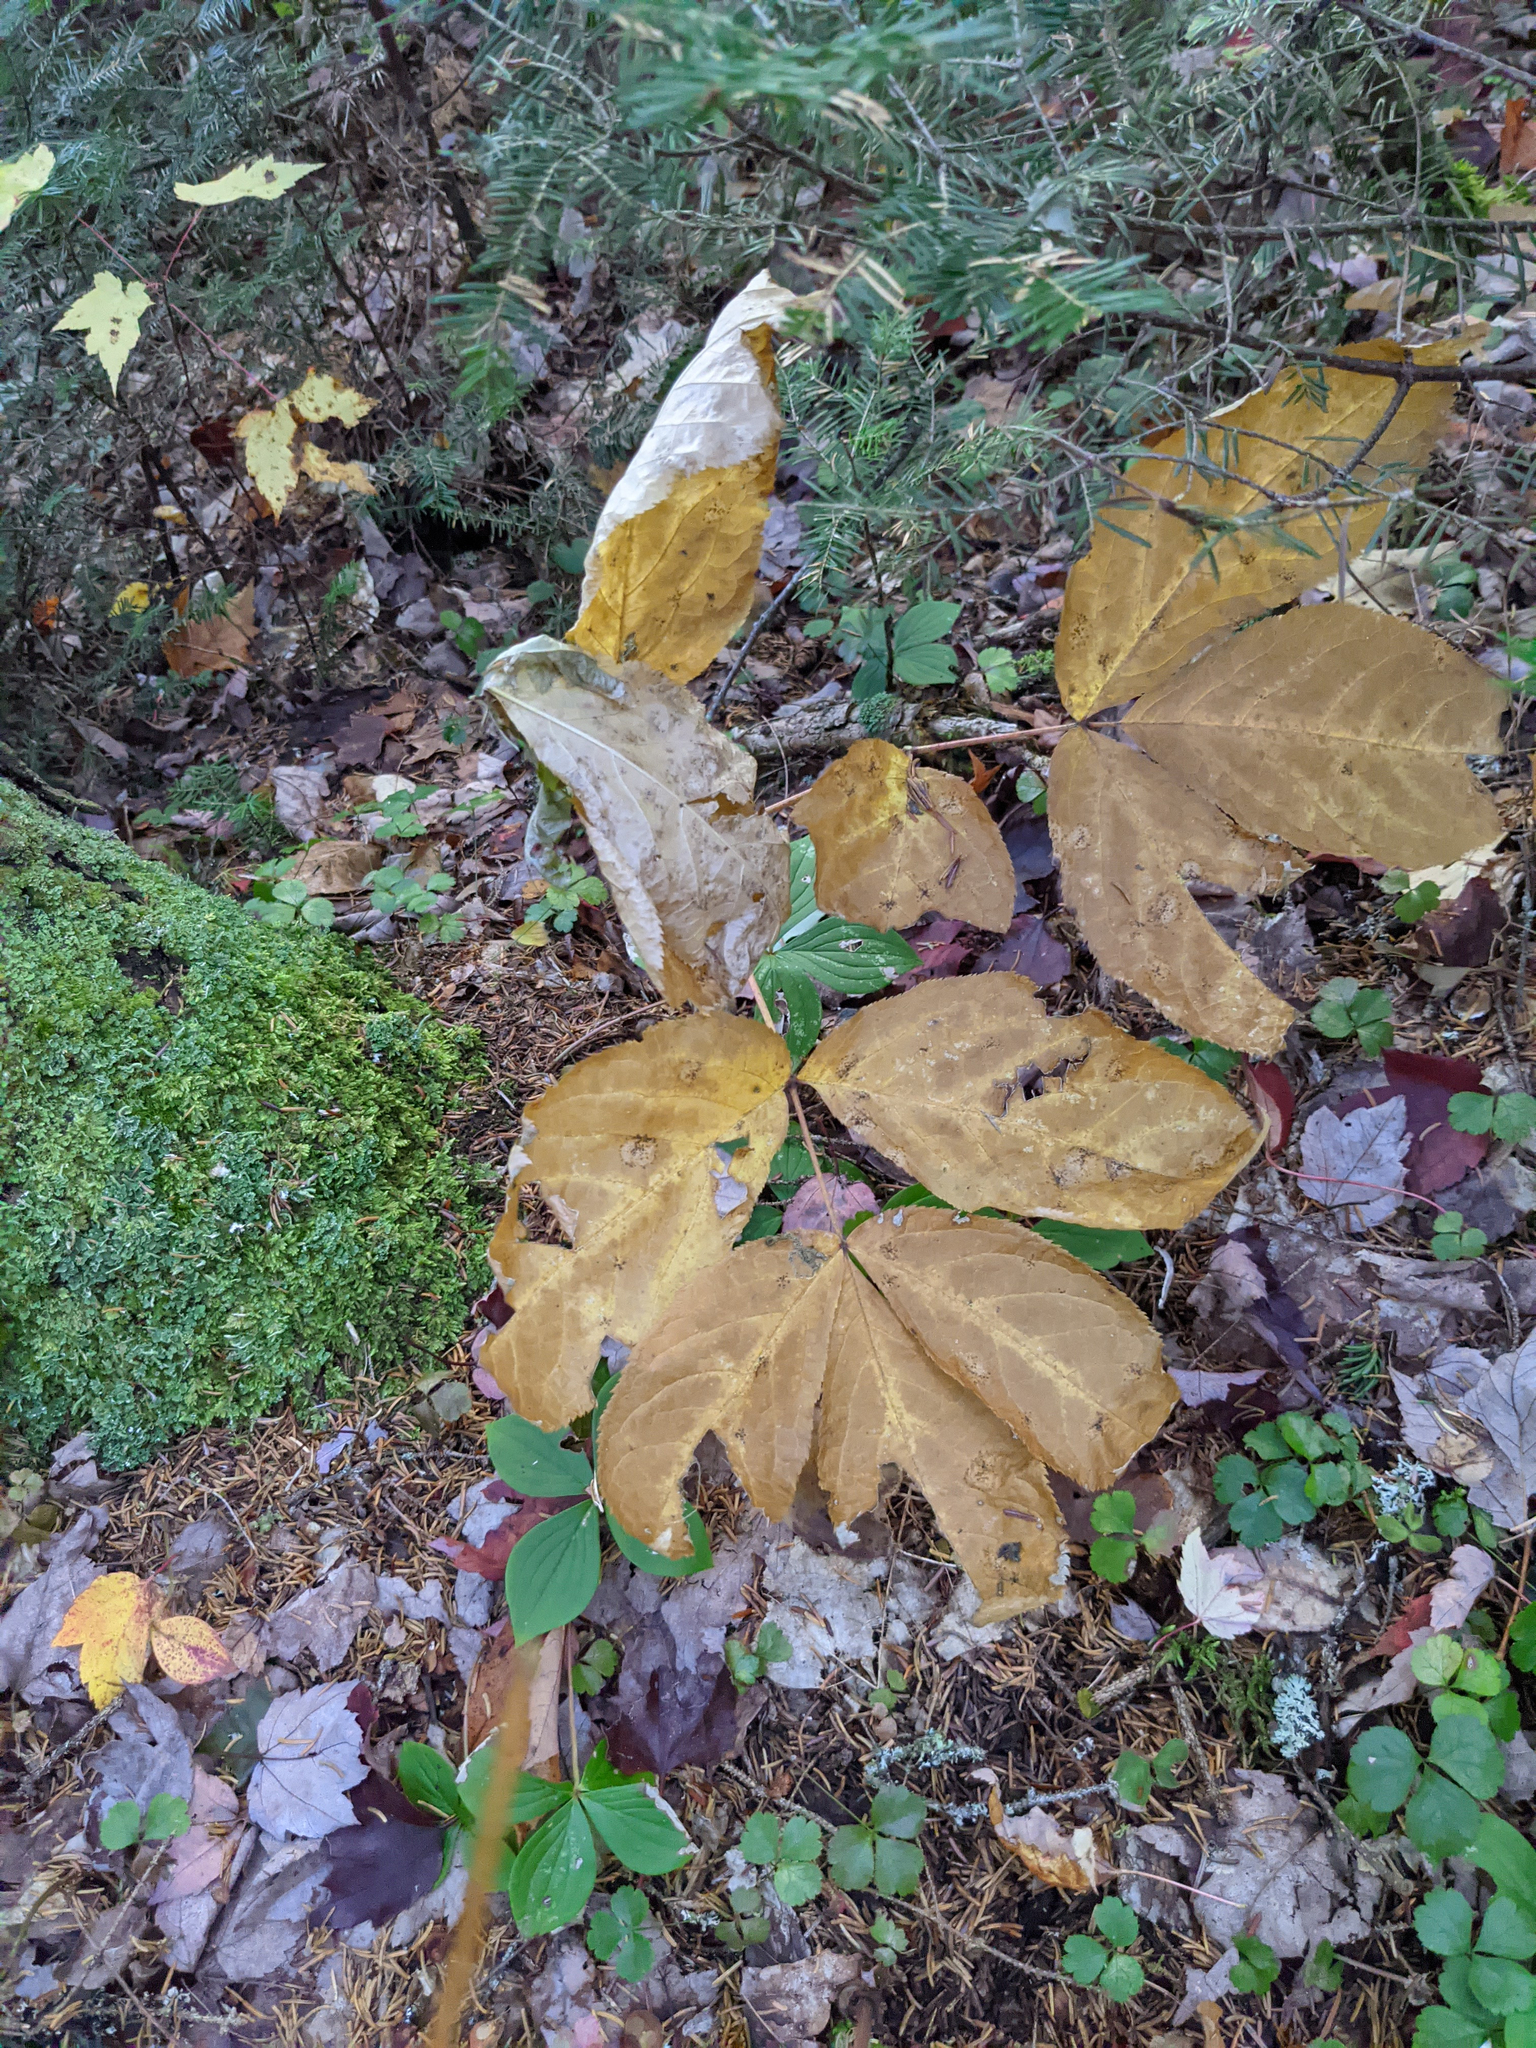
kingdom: Plantae
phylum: Tracheophyta
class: Magnoliopsida
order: Apiales
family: Araliaceae
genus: Aralia
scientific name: Aralia nudicaulis
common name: Wild sarsaparilla
